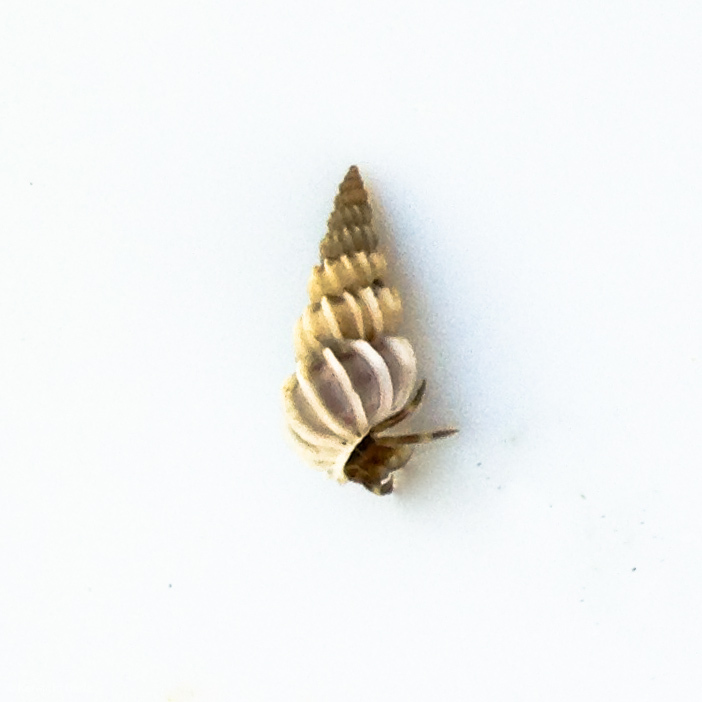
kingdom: Animalia
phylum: Mollusca
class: Gastropoda
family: Epitoniidae
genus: Epitonium
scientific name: Epitonium tinctum
